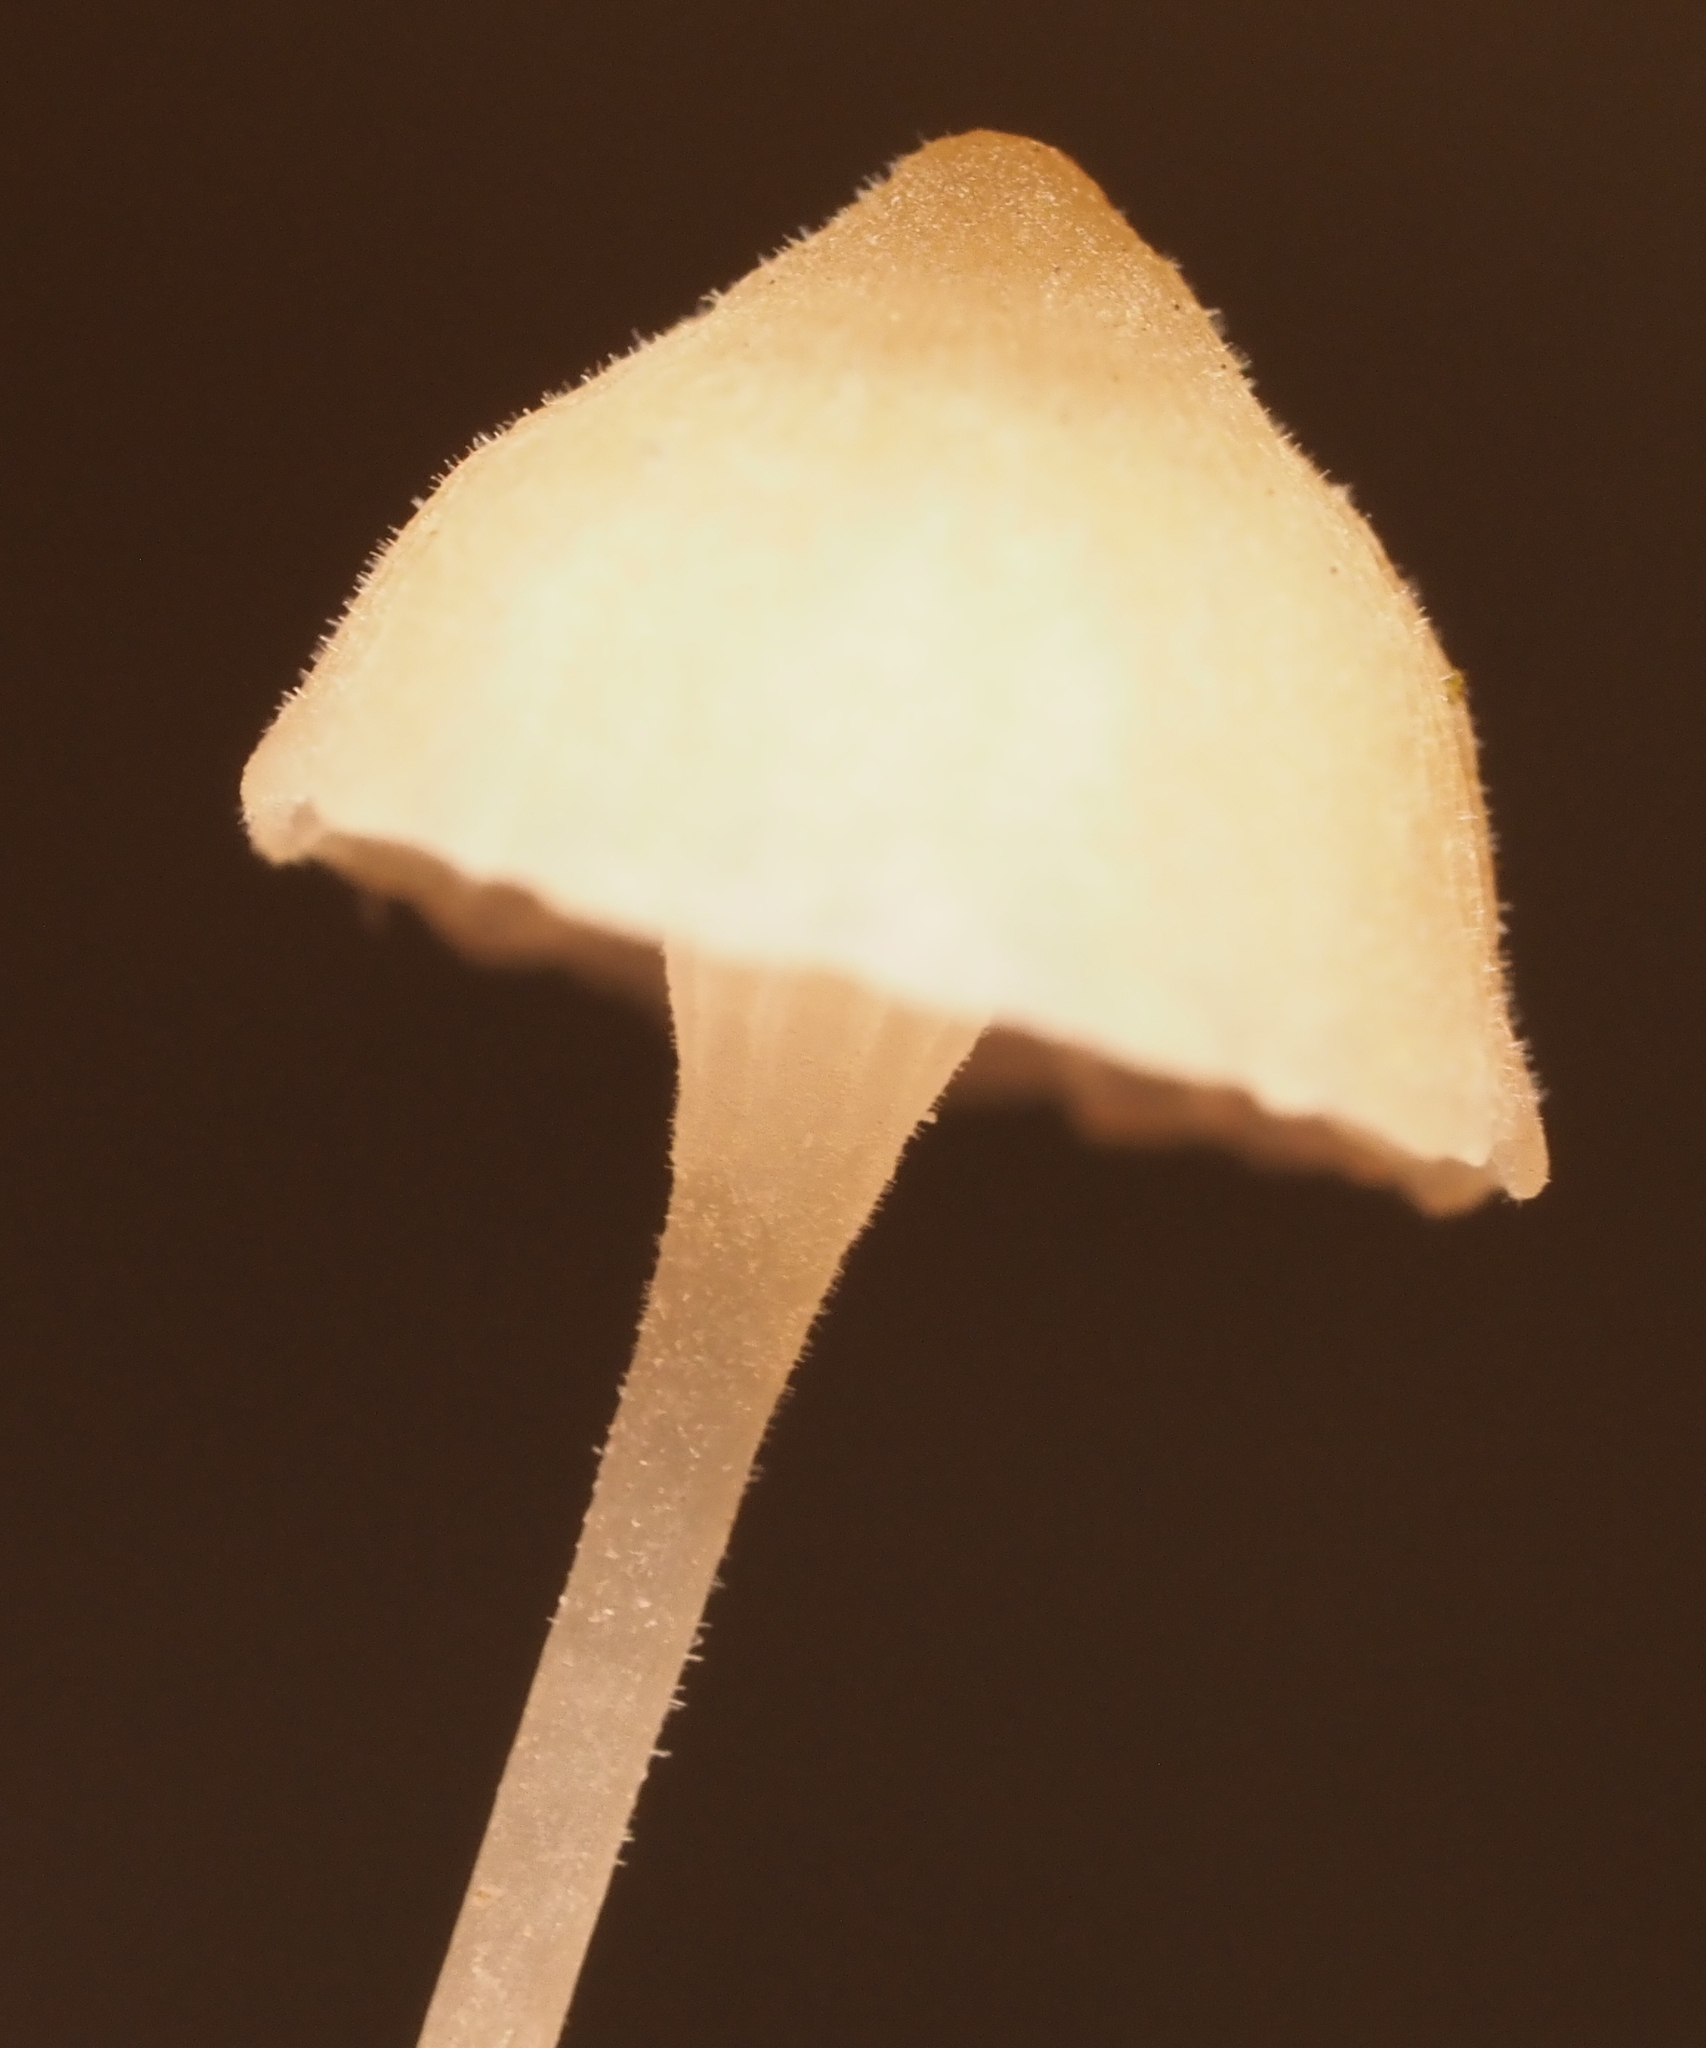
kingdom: Fungi
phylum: Basidiomycota
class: Agaricomycetes
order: Hymenochaetales
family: Rickenellaceae
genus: Rickenella
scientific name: Rickenella fibula
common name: Orange mosscap
